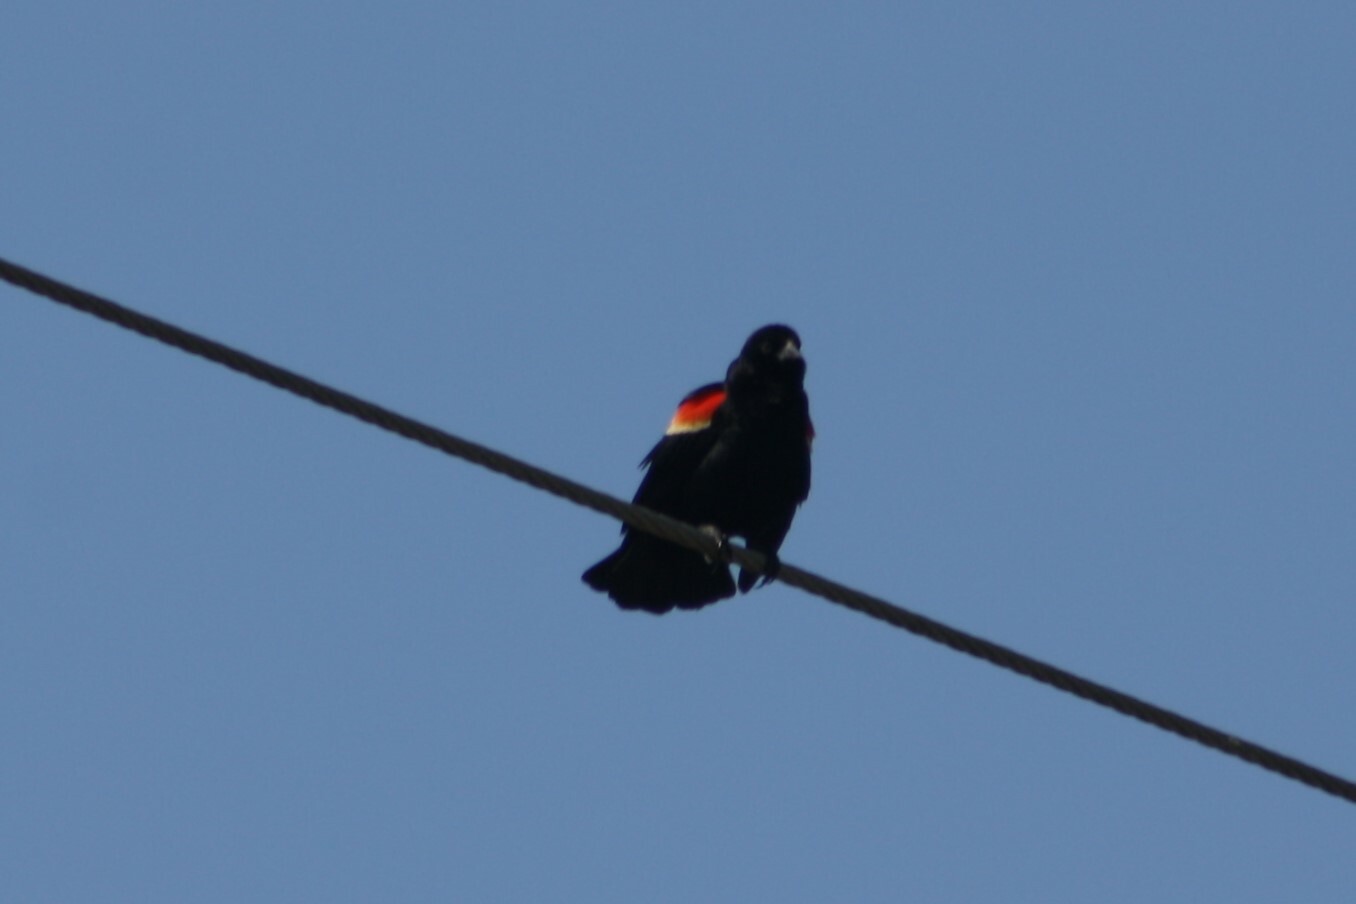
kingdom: Animalia
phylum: Chordata
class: Aves
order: Passeriformes
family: Icteridae
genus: Agelaius
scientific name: Agelaius phoeniceus
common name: Red-winged blackbird
